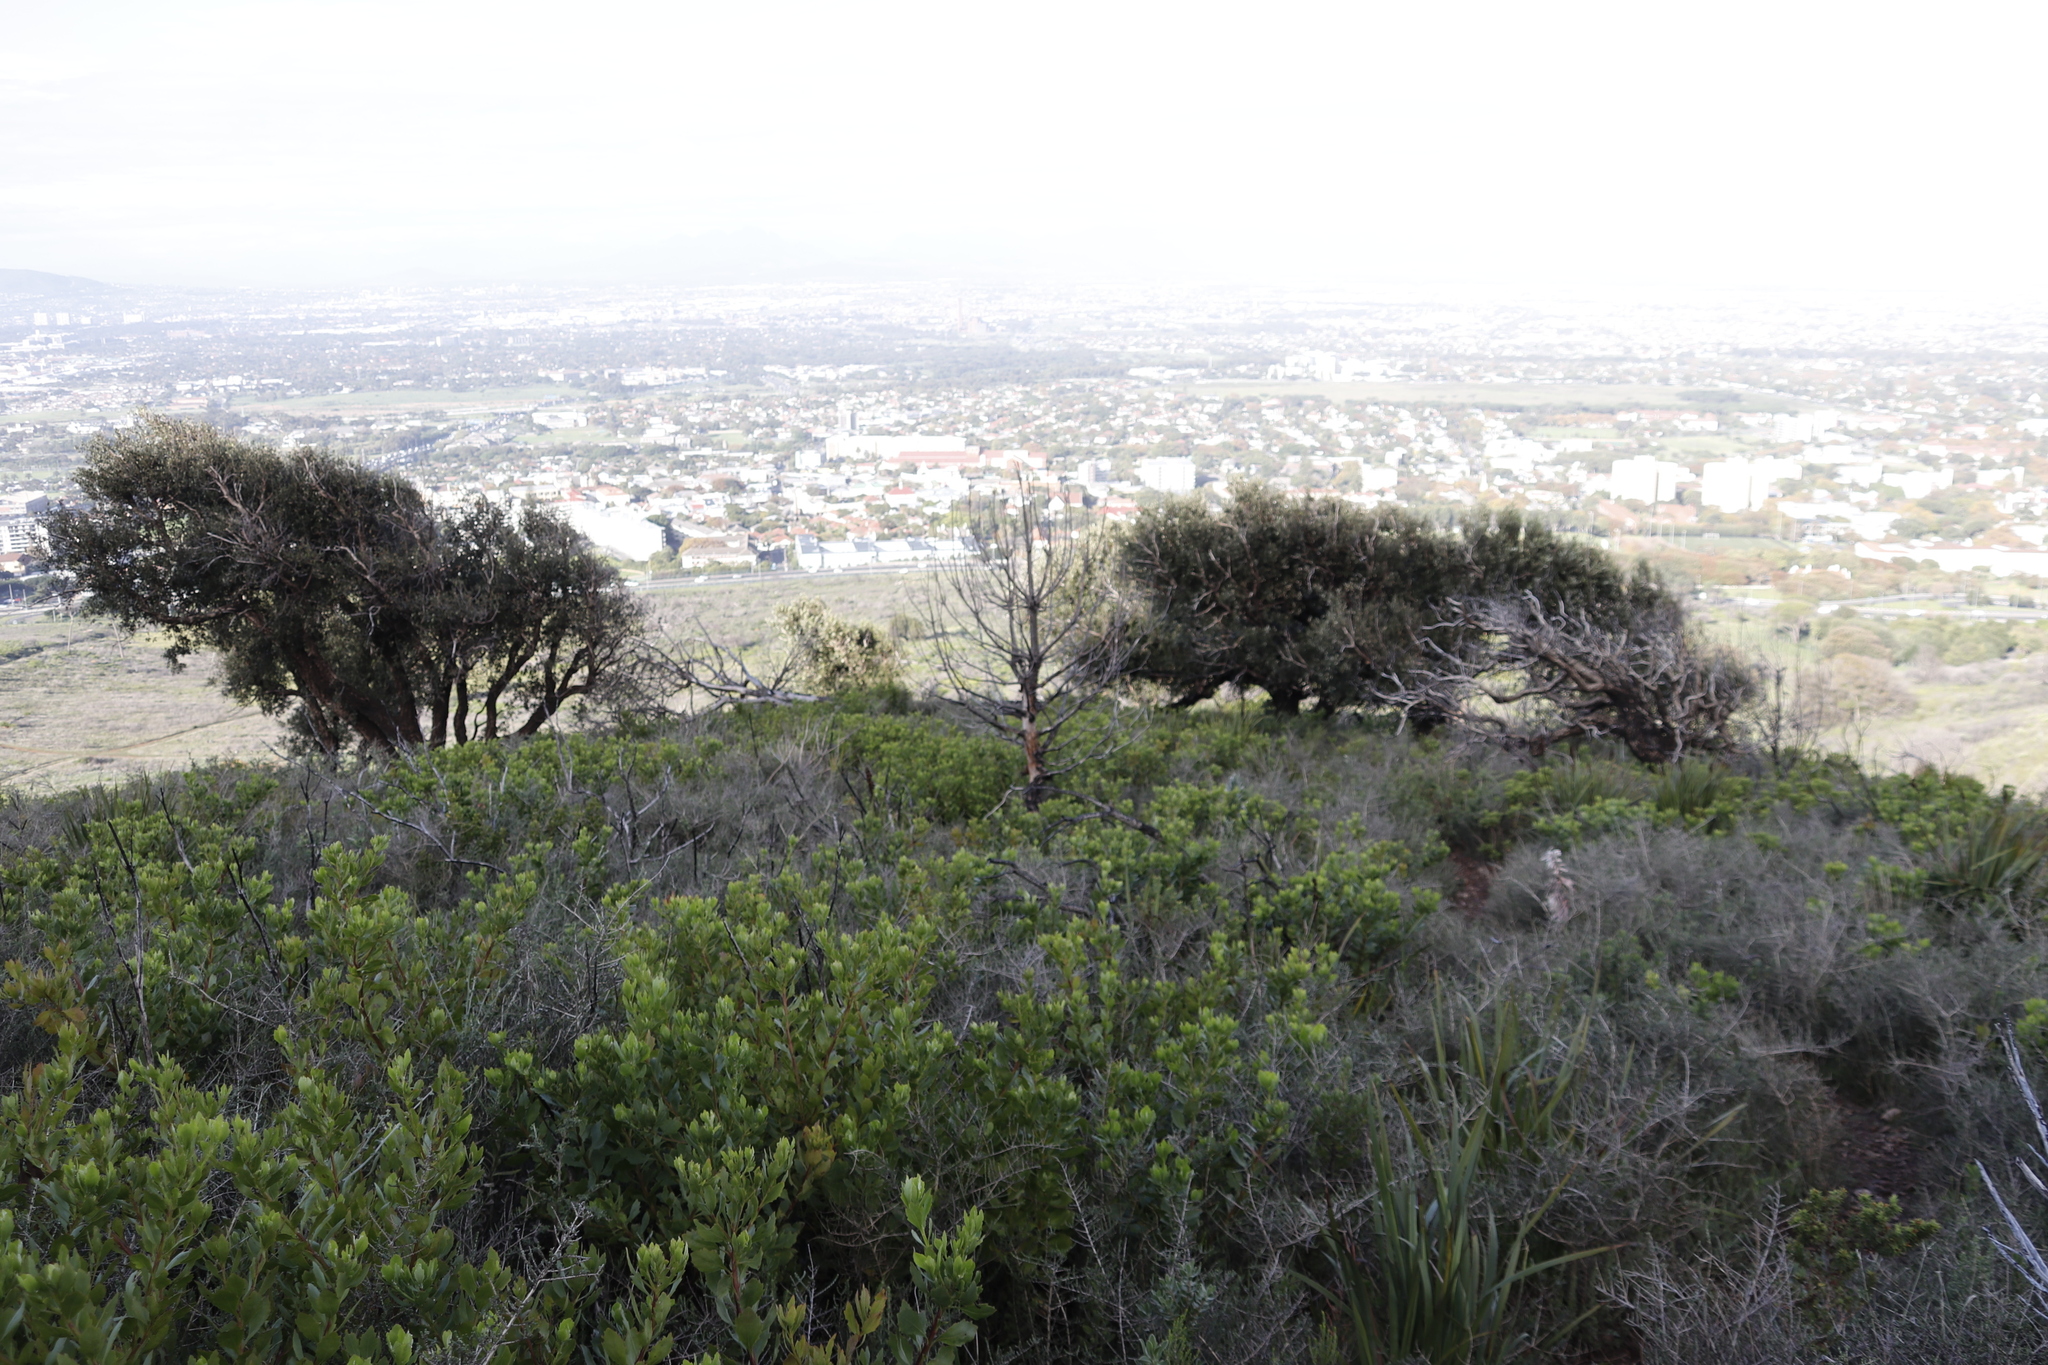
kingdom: Plantae
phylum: Tracheophyta
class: Magnoliopsida
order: Asterales
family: Asteraceae
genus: Osteospermum
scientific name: Osteospermum moniliferum
